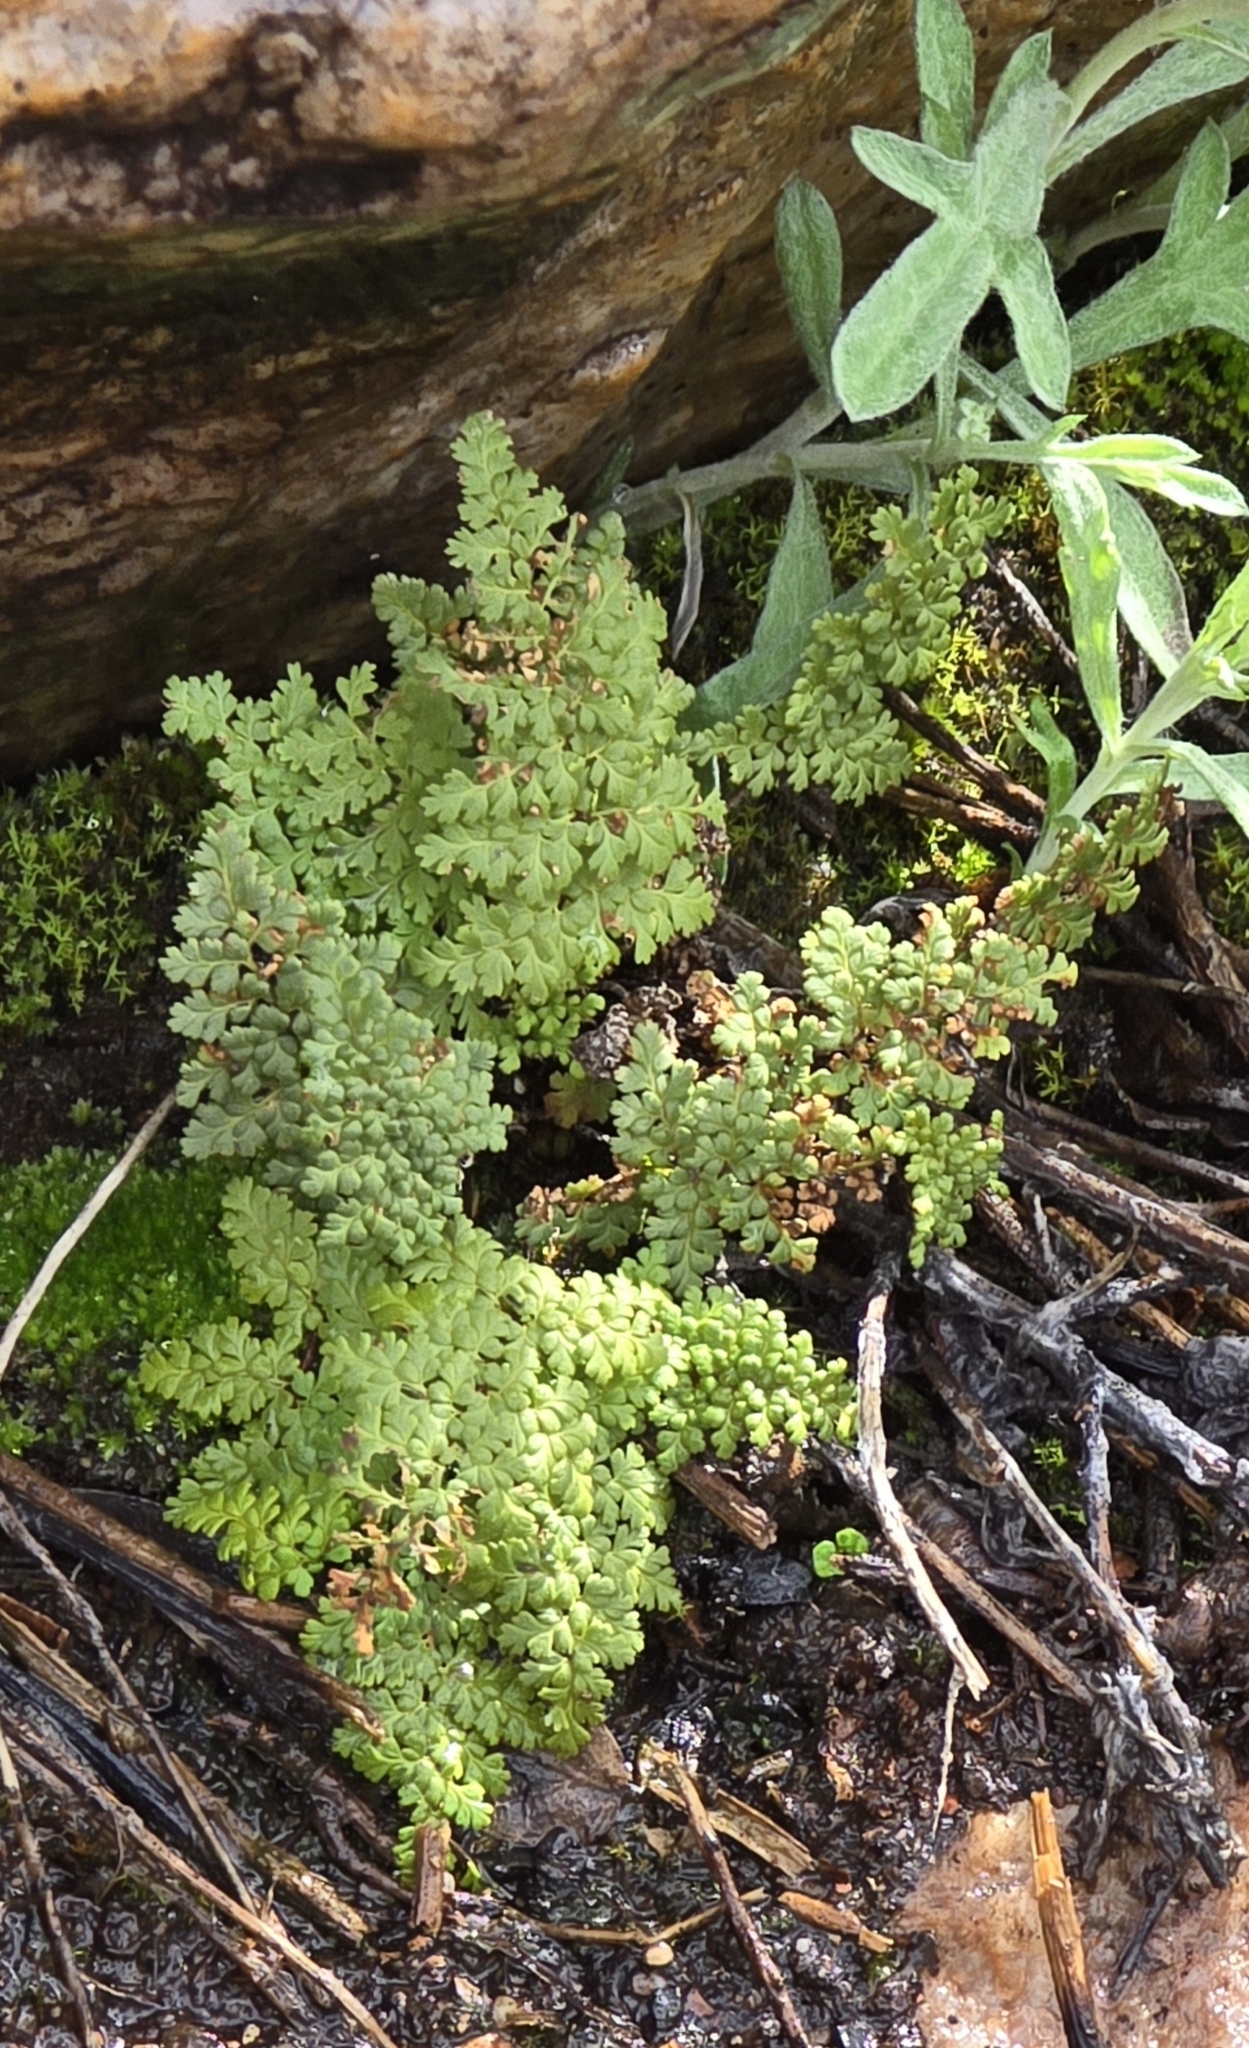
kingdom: Plantae
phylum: Tracheophyta
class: Polypodiopsida
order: Polypodiales
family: Pteridaceae
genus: Myriopteris
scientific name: Myriopteris fendleri
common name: Fendler's lip fern
